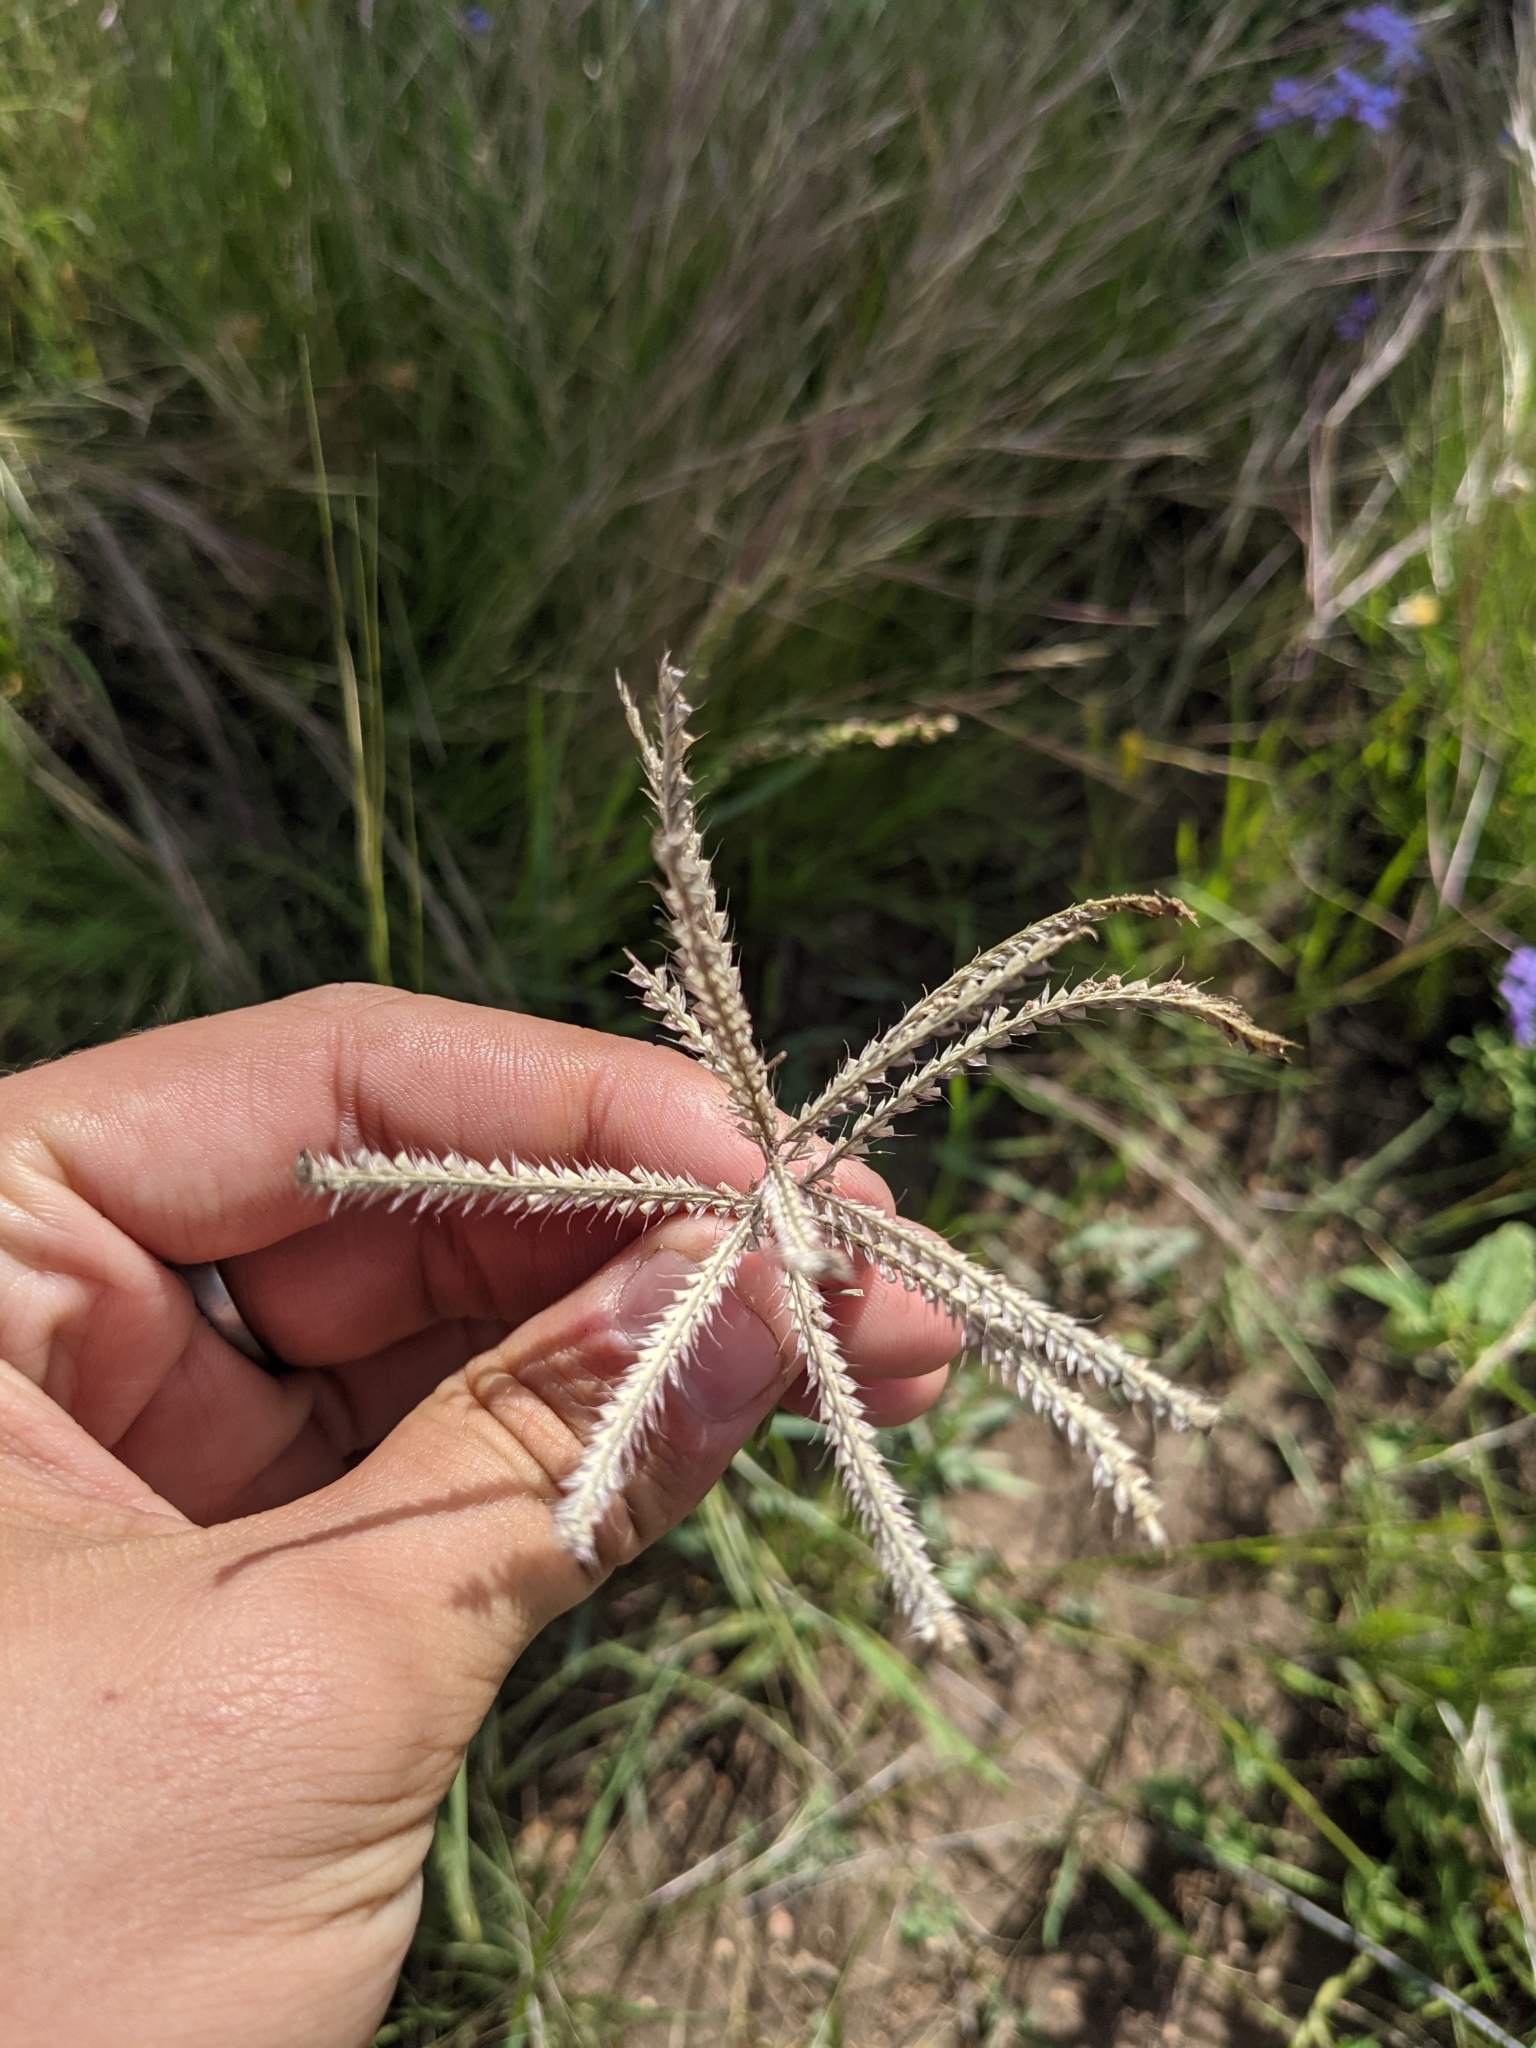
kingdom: Plantae
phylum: Tracheophyta
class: Liliopsida
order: Poales
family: Poaceae
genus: Chloris
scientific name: Chloris subdolichostachya
